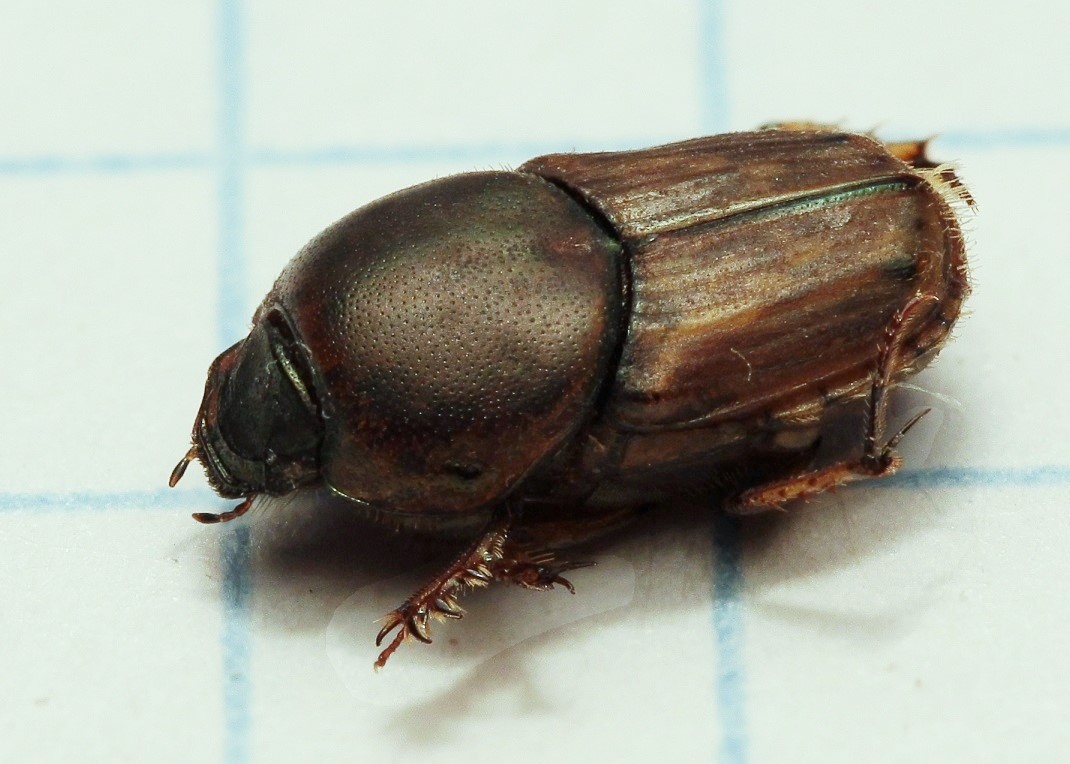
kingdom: Animalia
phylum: Arthropoda
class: Insecta
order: Coleoptera
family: Scarabaeidae
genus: Euoniticellus
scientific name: Euoniticellus fulvus
